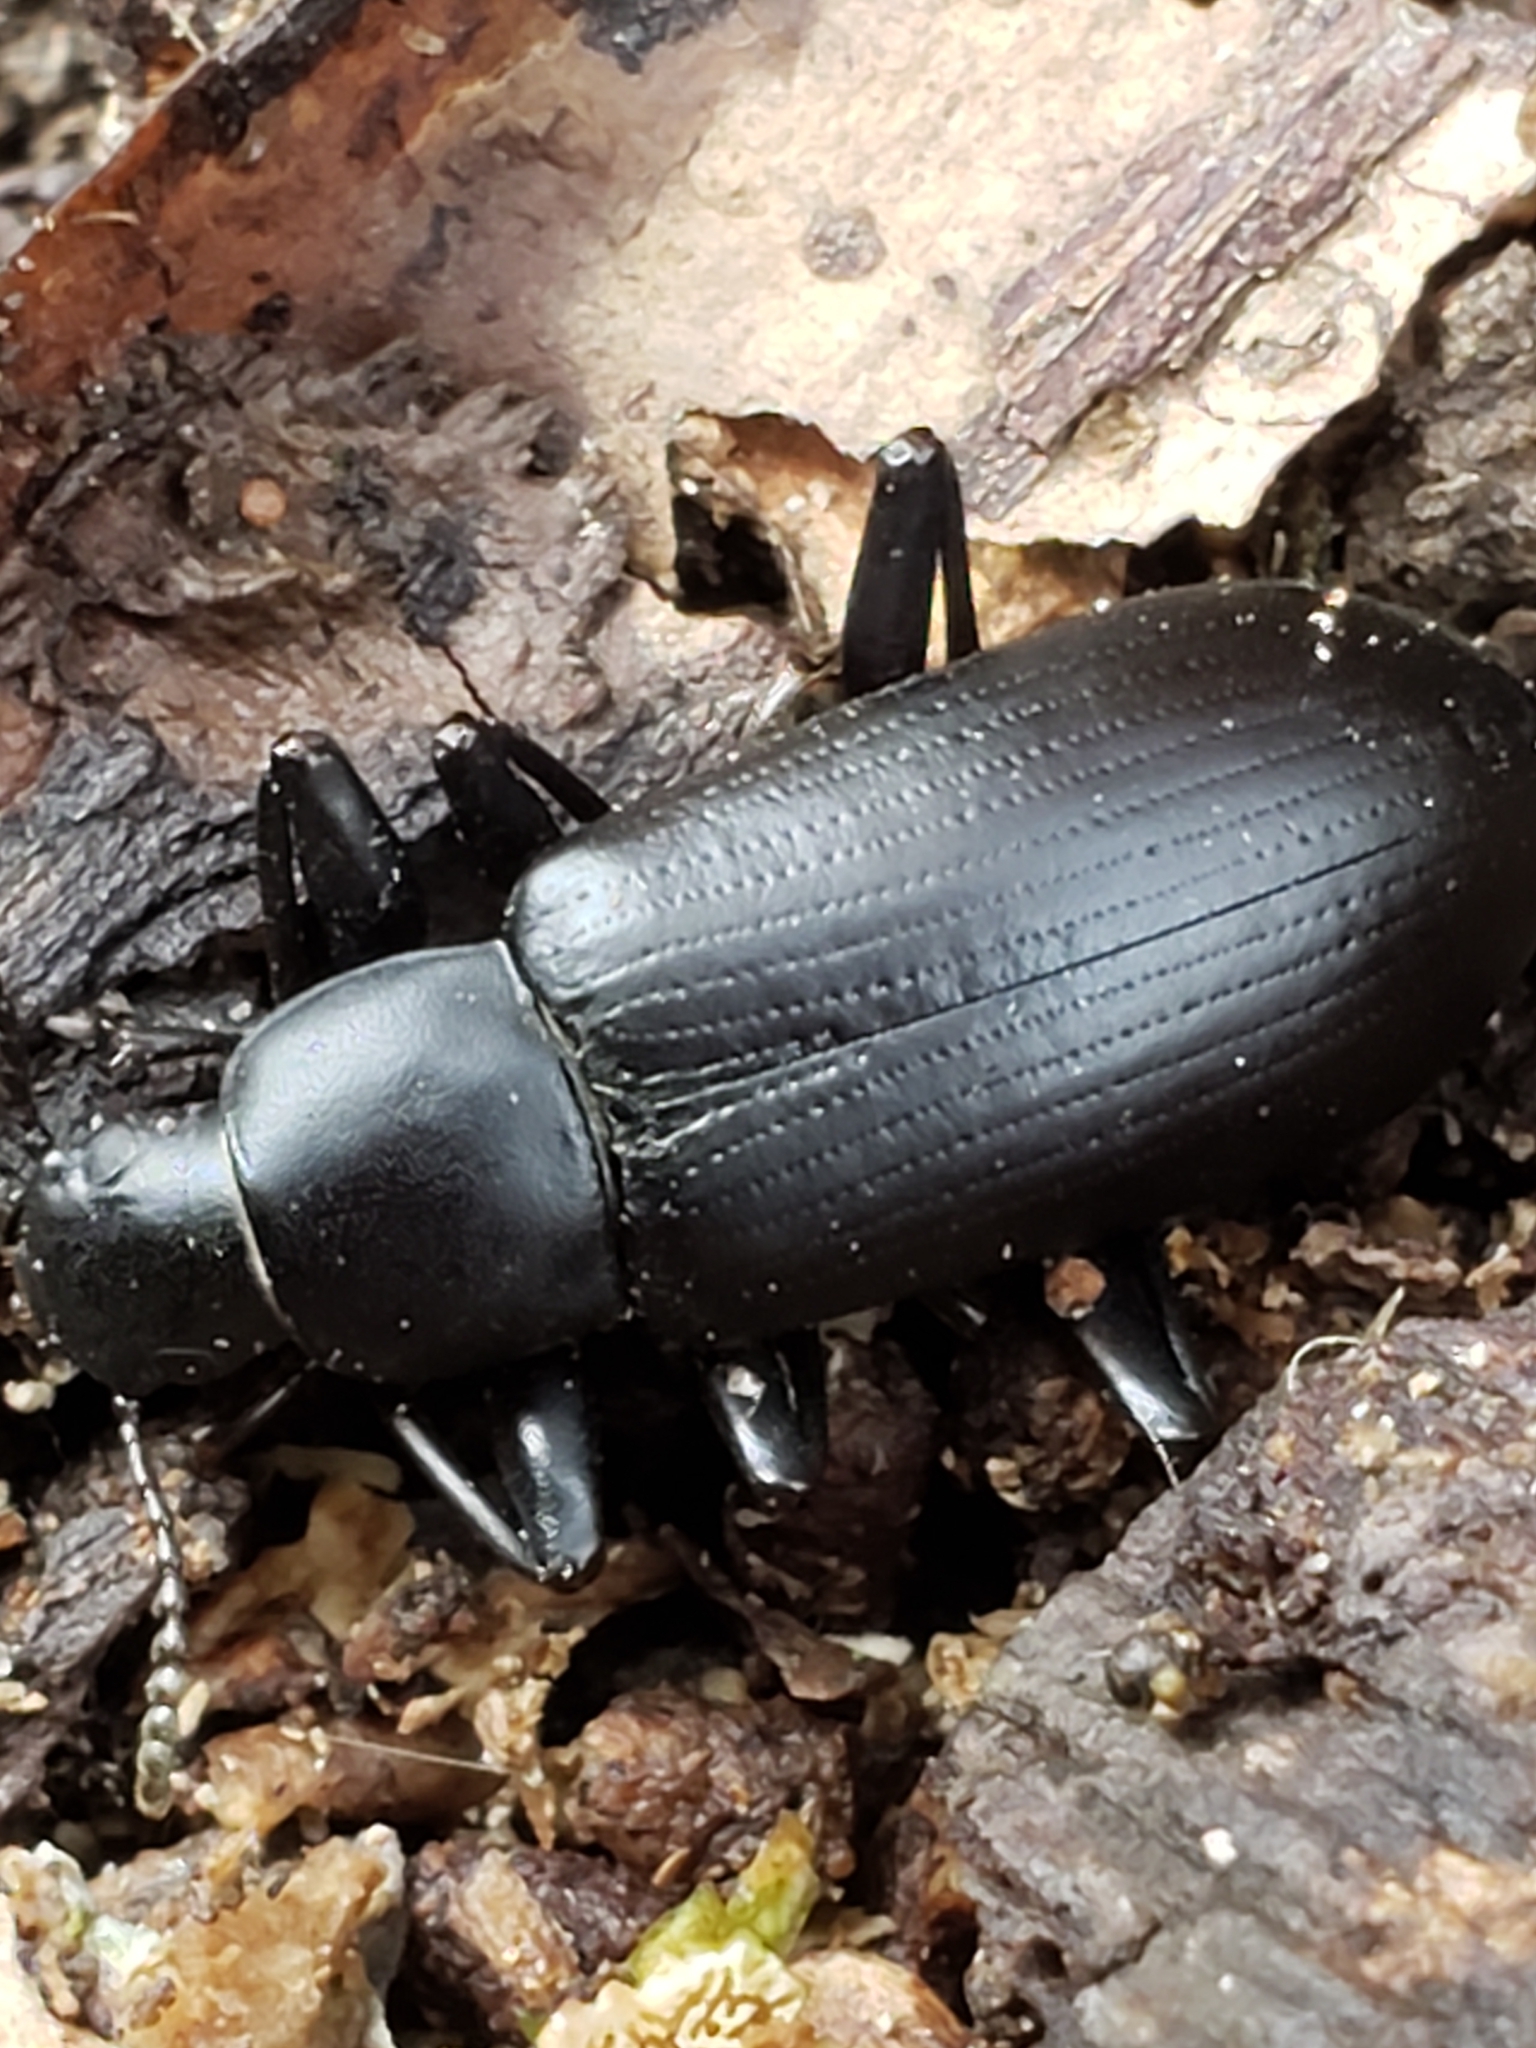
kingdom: Animalia
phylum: Arthropoda
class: Insecta
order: Coleoptera
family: Tenebrionidae
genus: Alobates
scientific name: Alobates pensylvanicus
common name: False mealworm beetle
